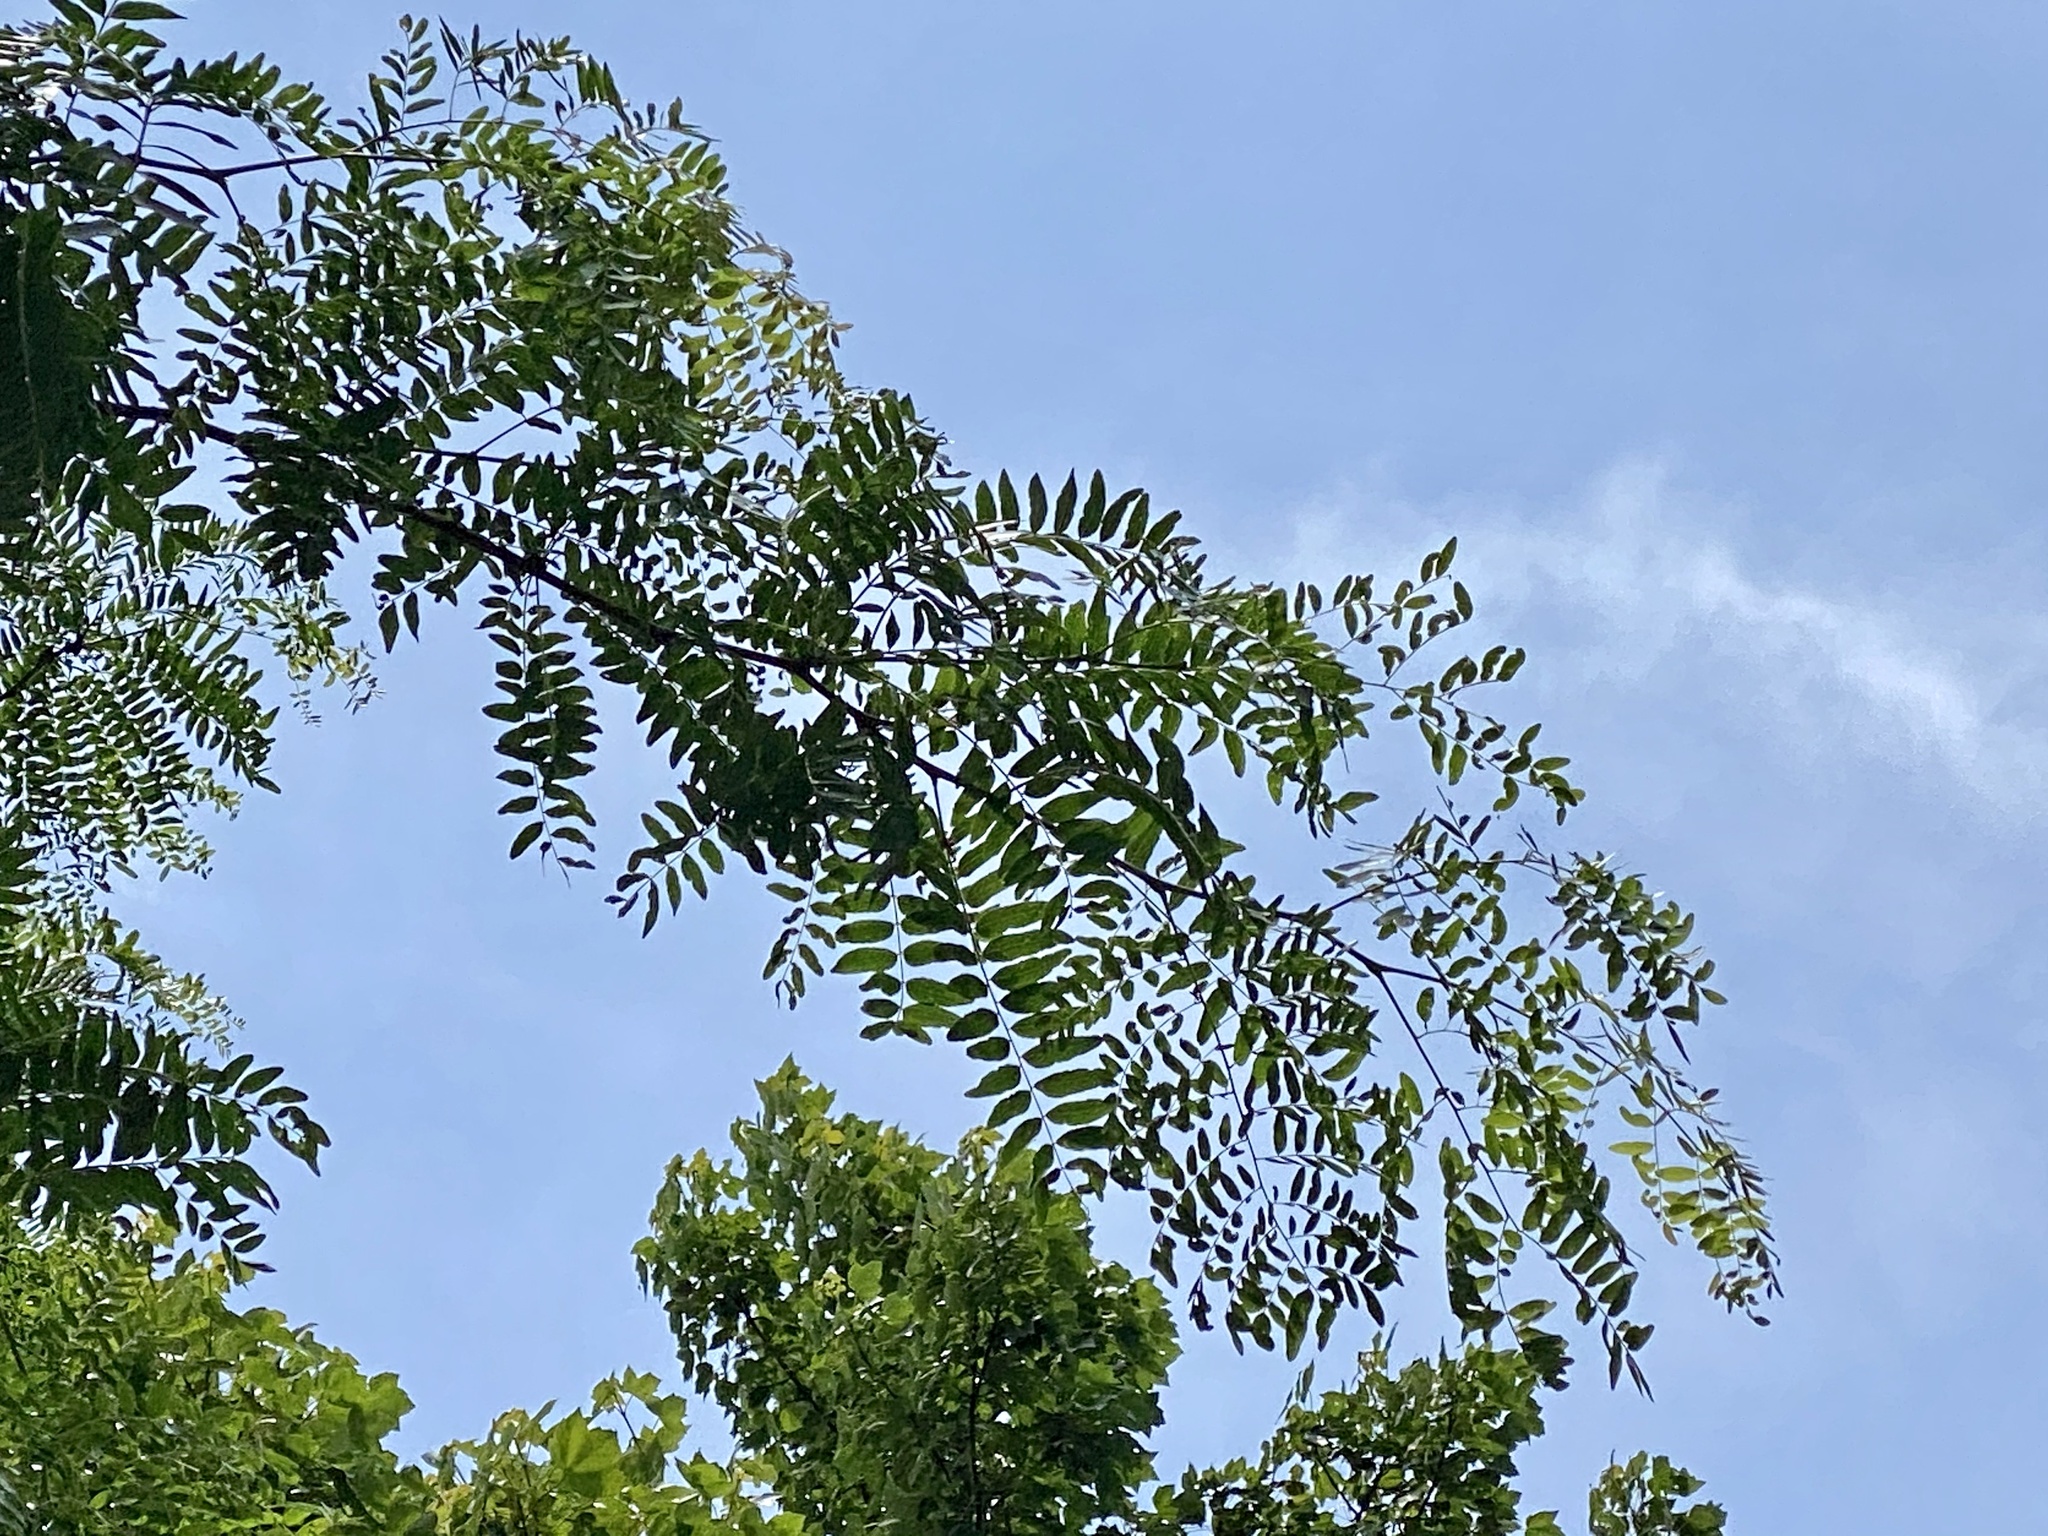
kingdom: Plantae
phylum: Tracheophyta
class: Magnoliopsida
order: Fabales
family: Fabaceae
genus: Gleditsia
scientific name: Gleditsia triacanthos
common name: Common honeylocust
